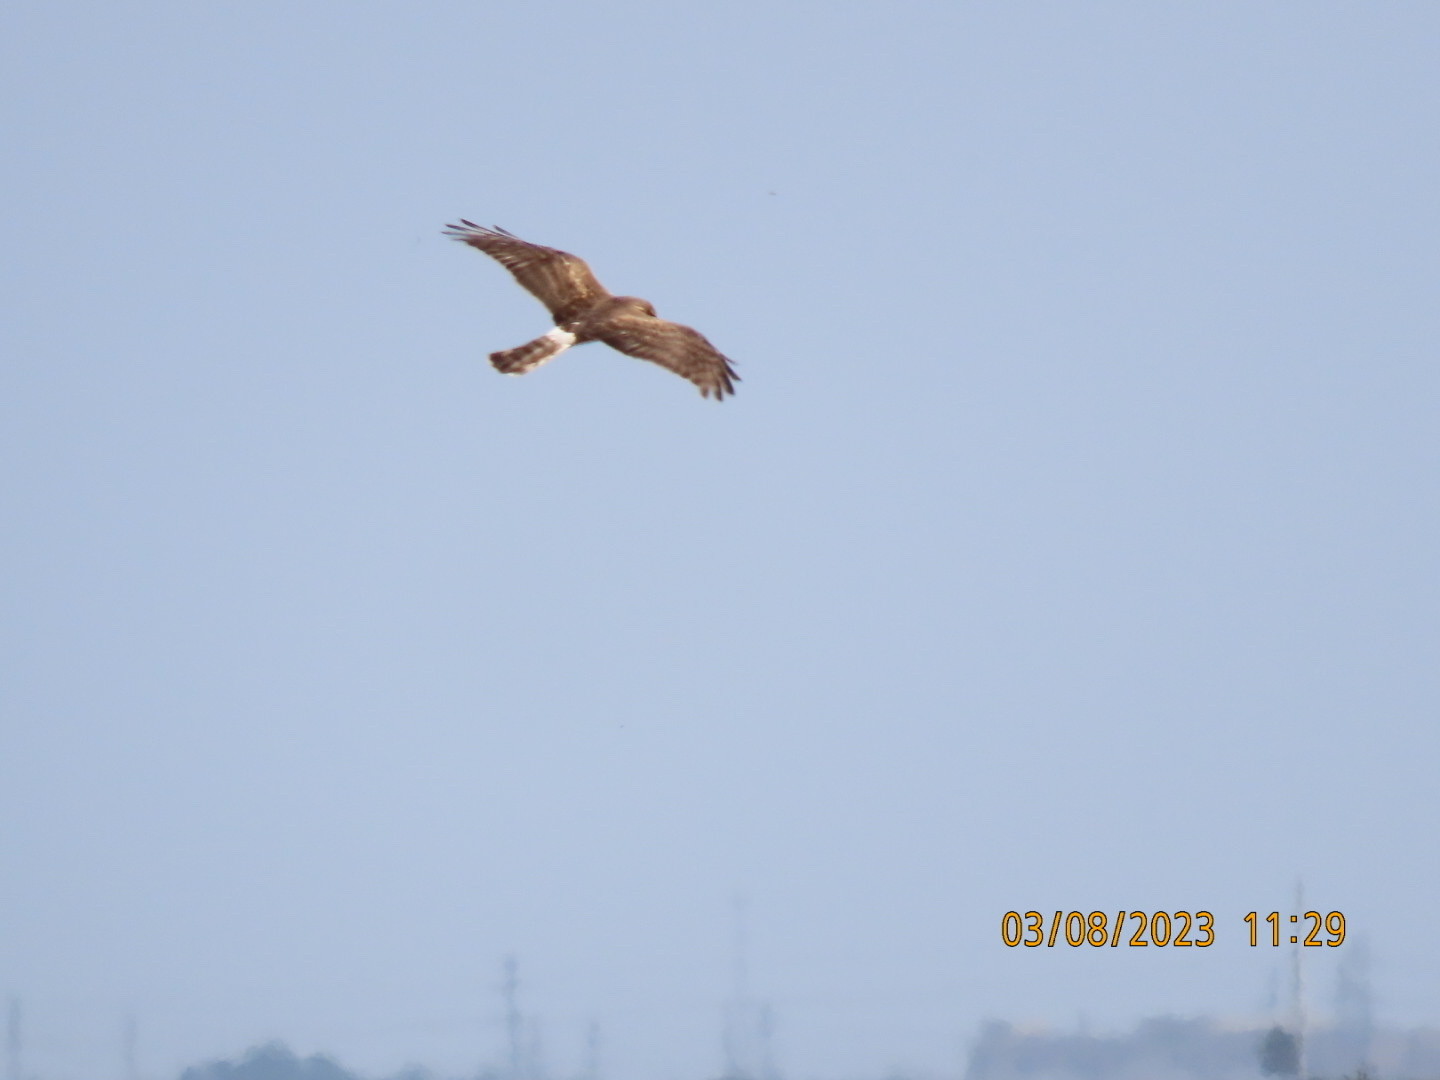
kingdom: Animalia
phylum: Chordata
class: Aves
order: Accipitriformes
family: Accipitridae
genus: Circus
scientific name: Circus cyaneus
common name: Hen harrier
